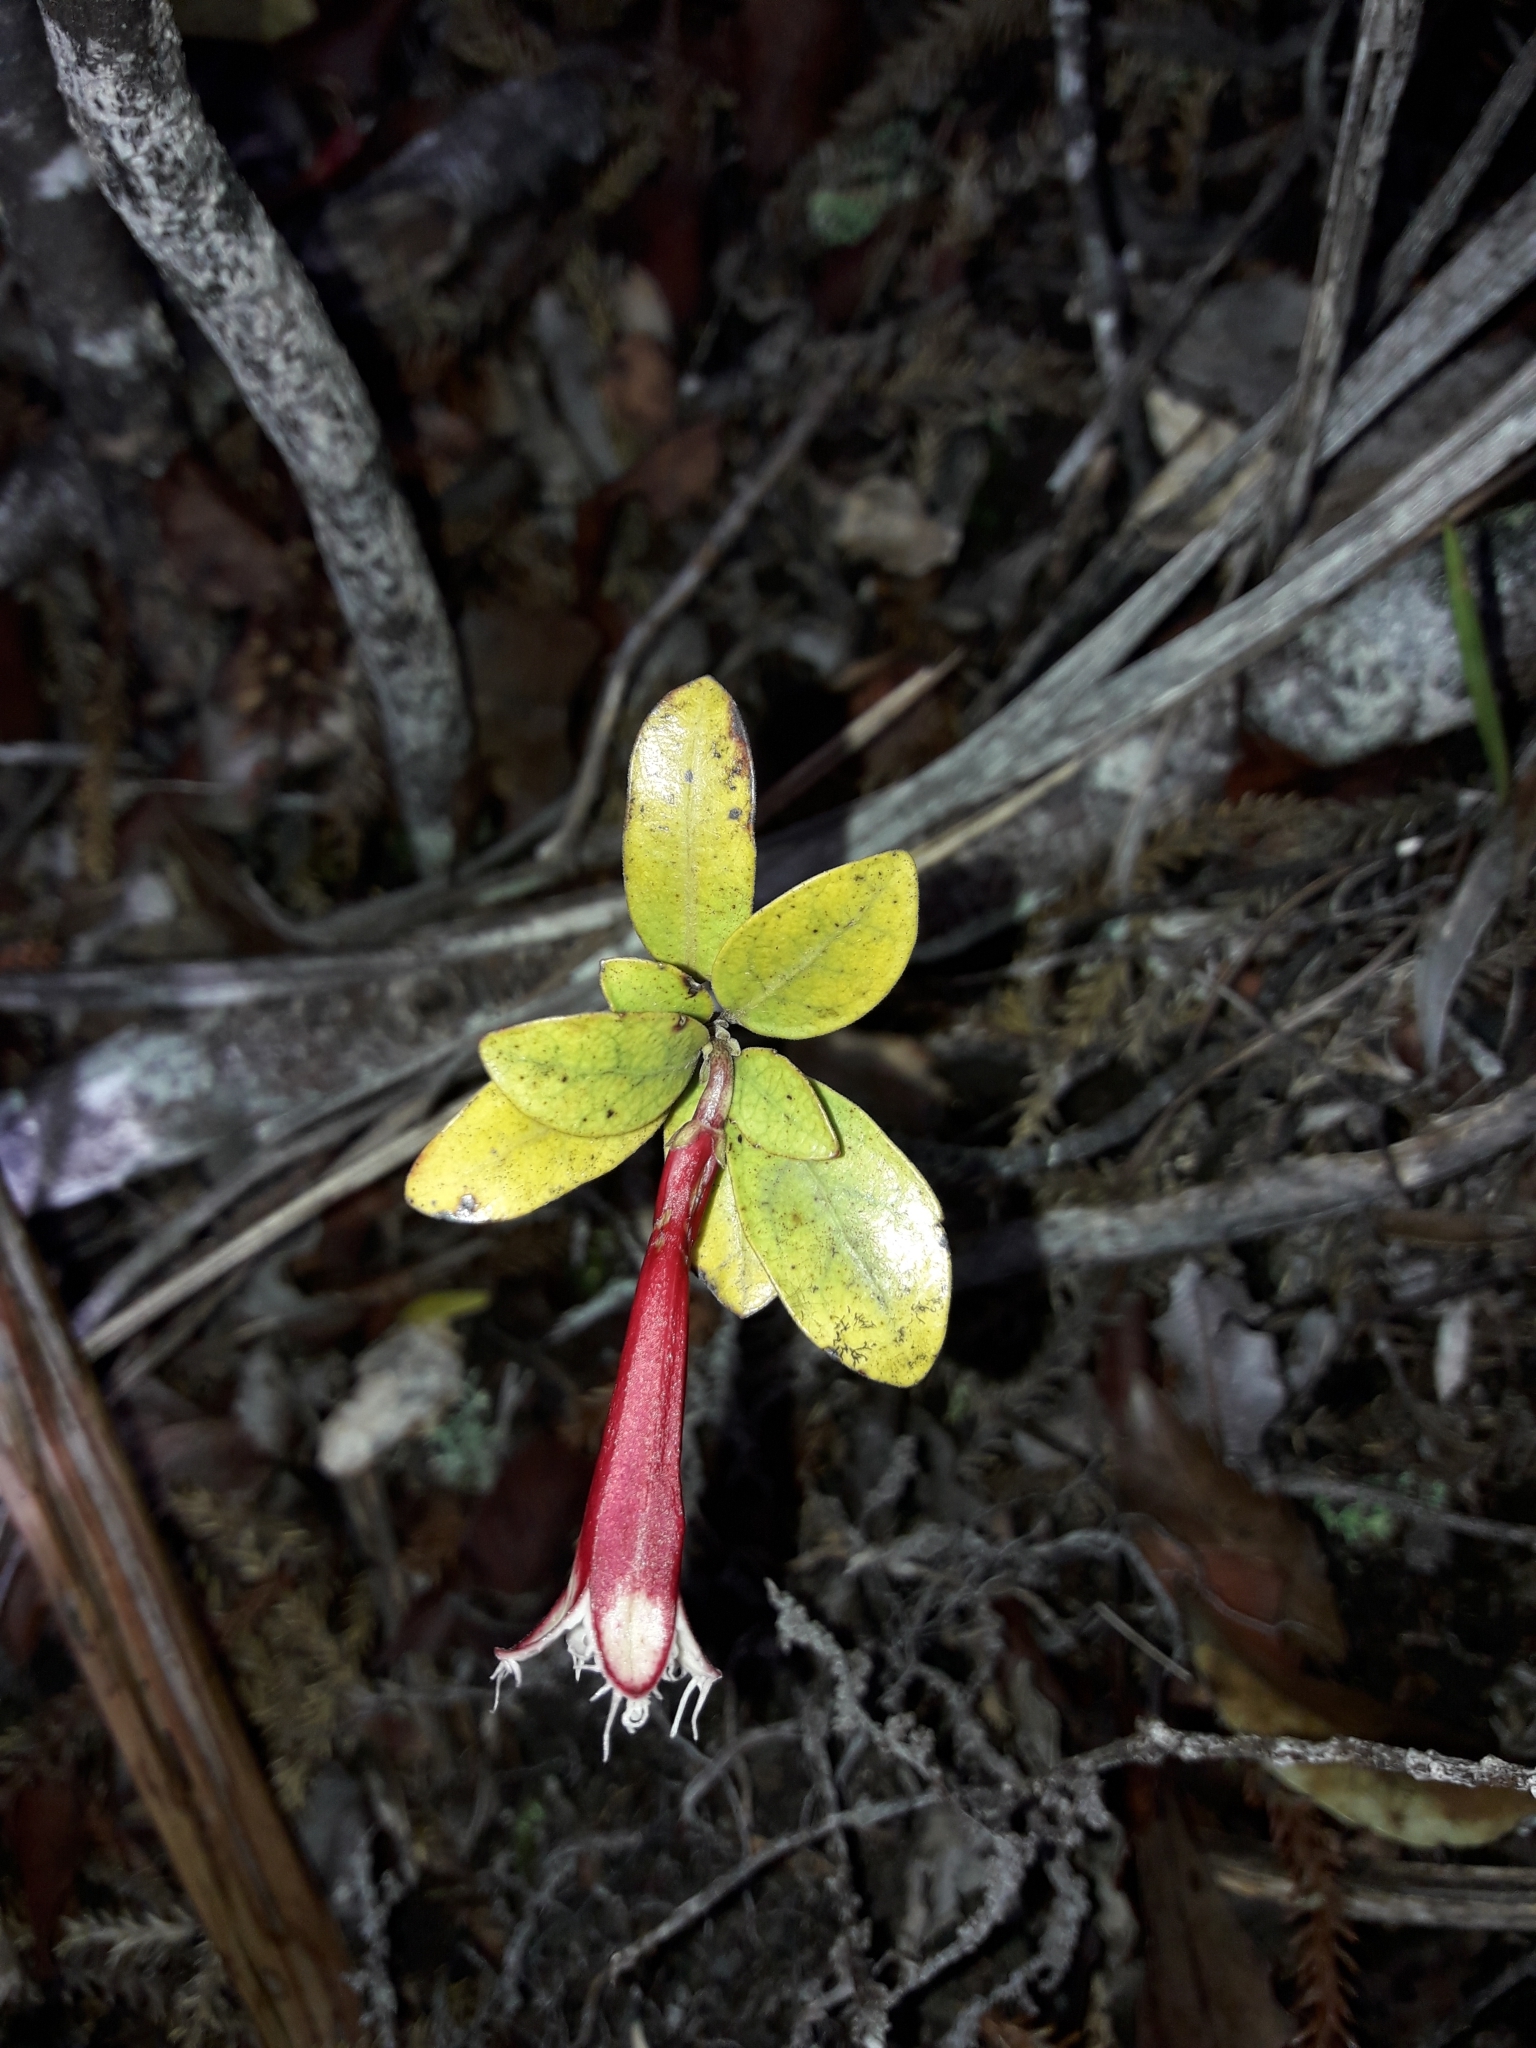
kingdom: Plantae
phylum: Tracheophyta
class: Magnoliopsida
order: Asterales
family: Alseuosmiaceae
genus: Alseuosmia
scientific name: Alseuosmia macrophylla
